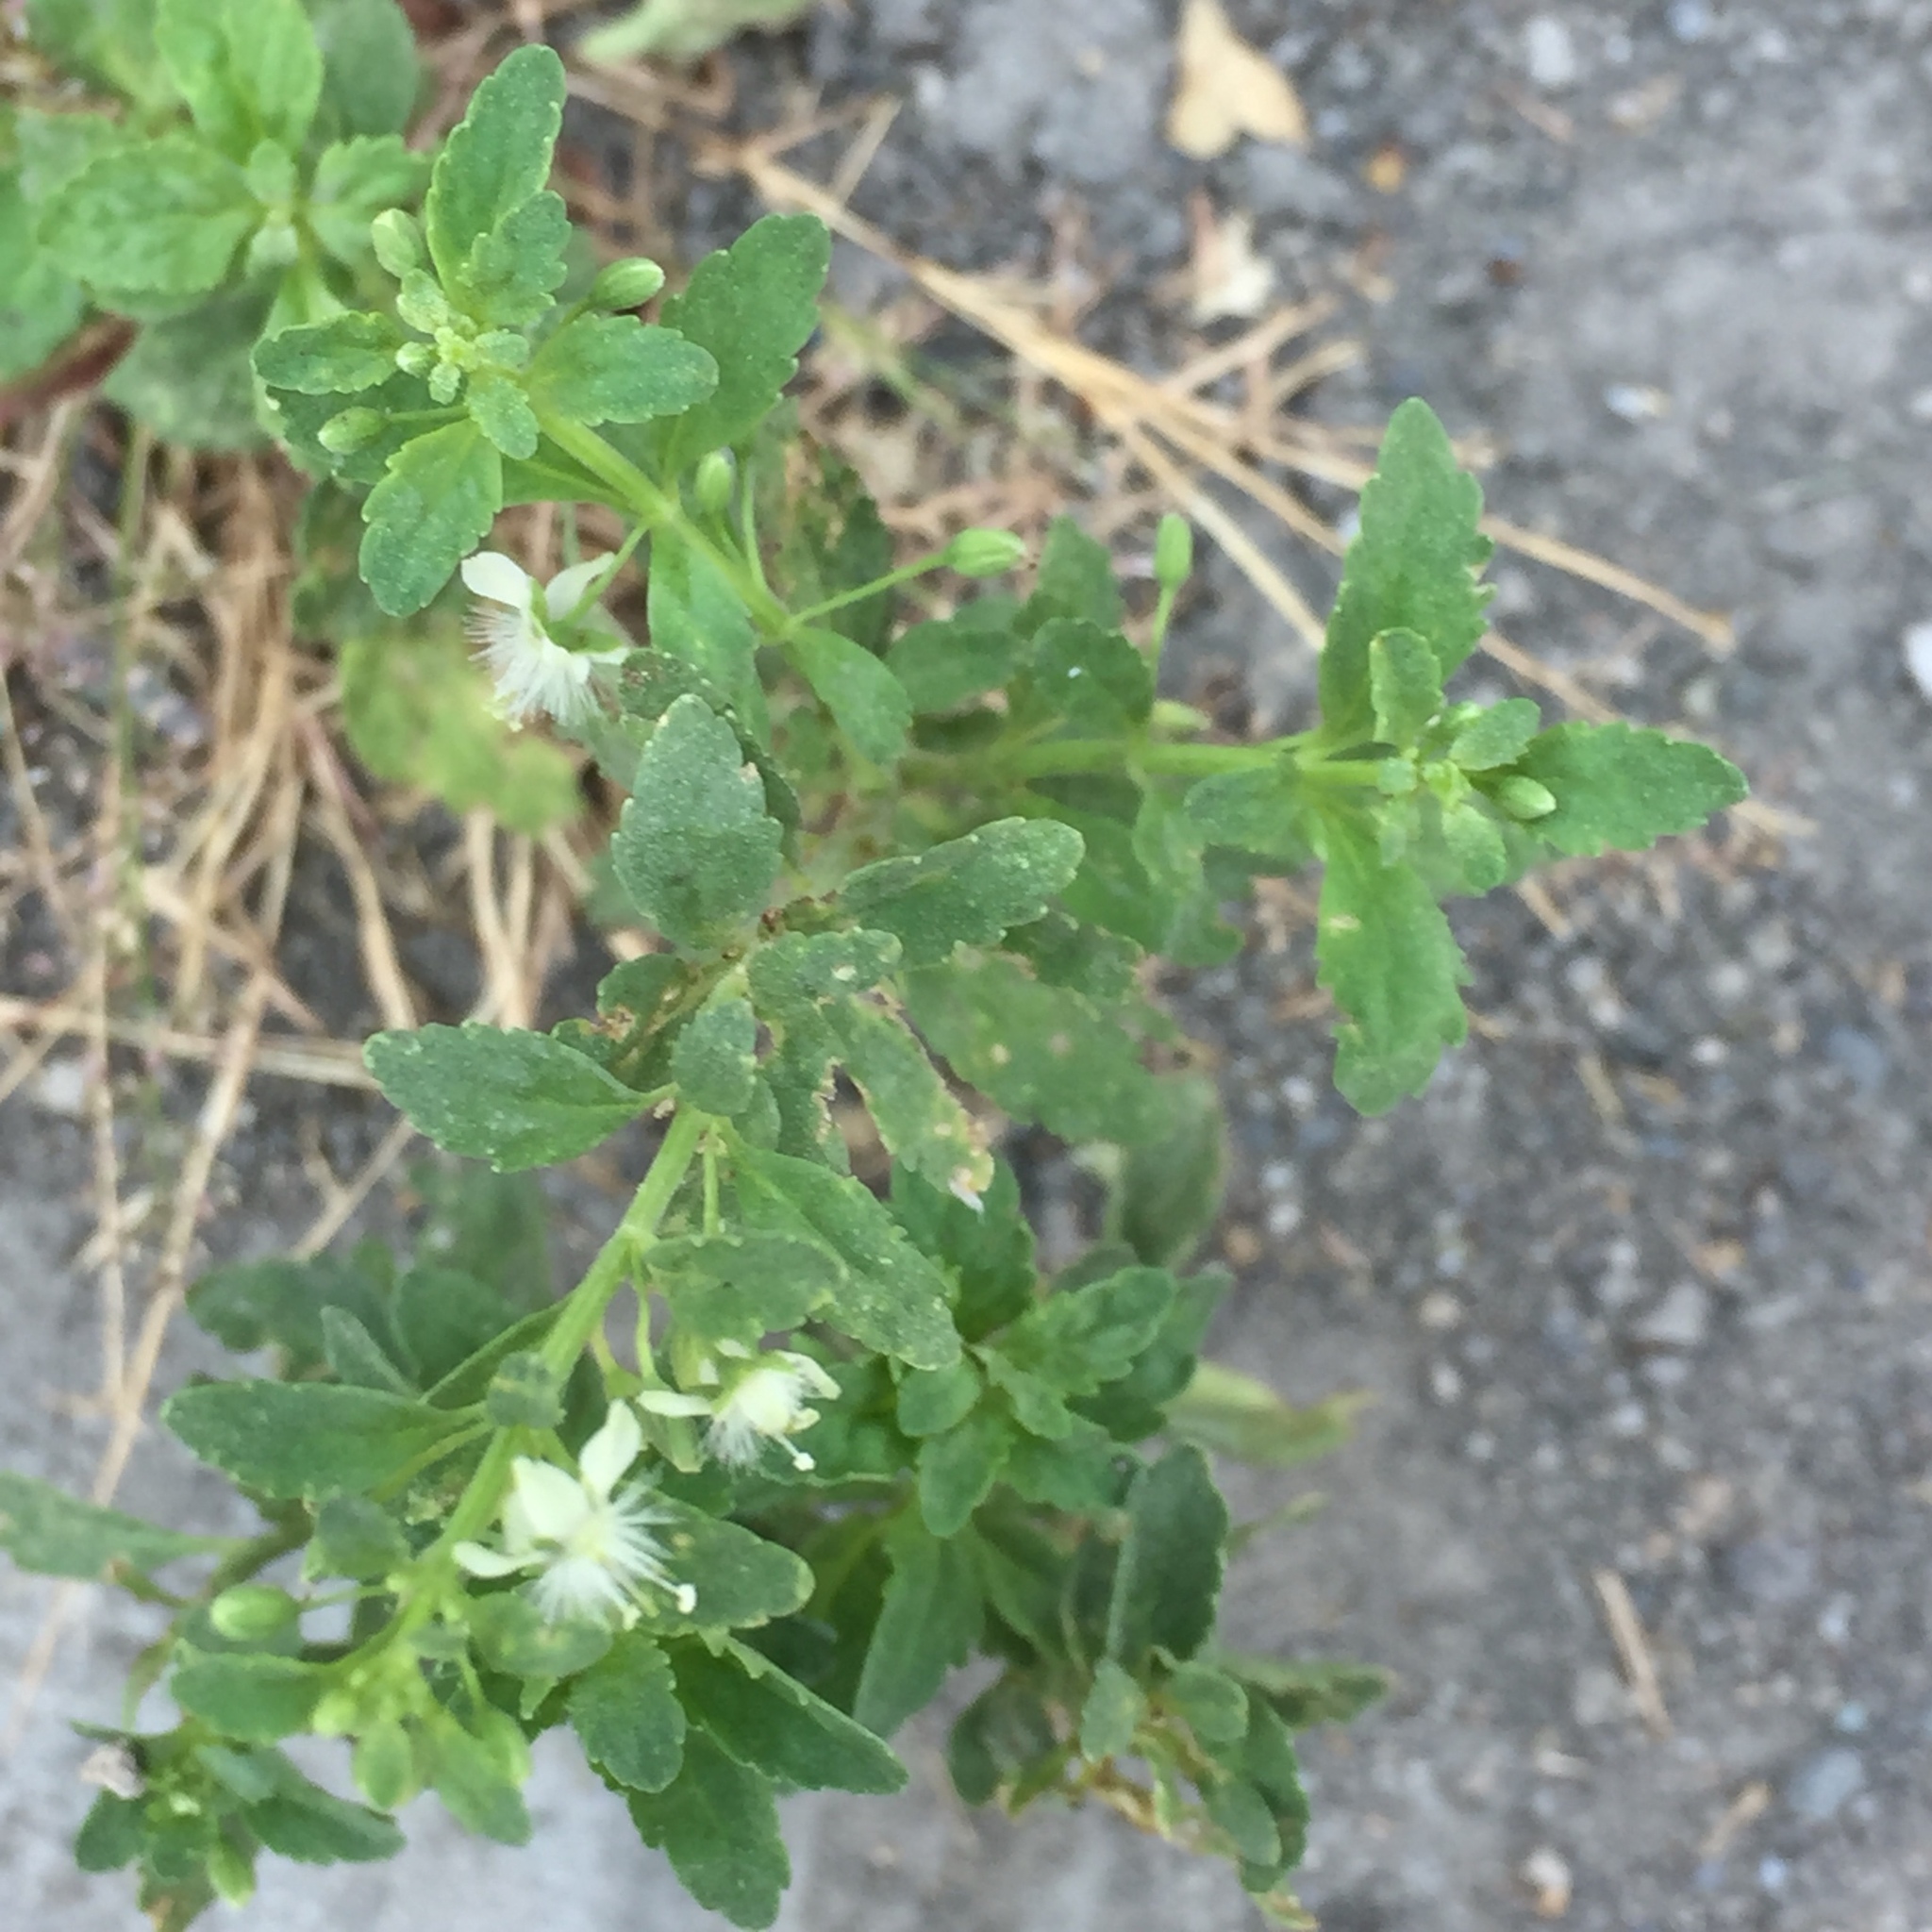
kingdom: Plantae
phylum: Tracheophyta
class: Magnoliopsida
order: Lamiales
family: Plantaginaceae
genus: Scoparia
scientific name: Scoparia dulcis
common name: Scoparia-weed
